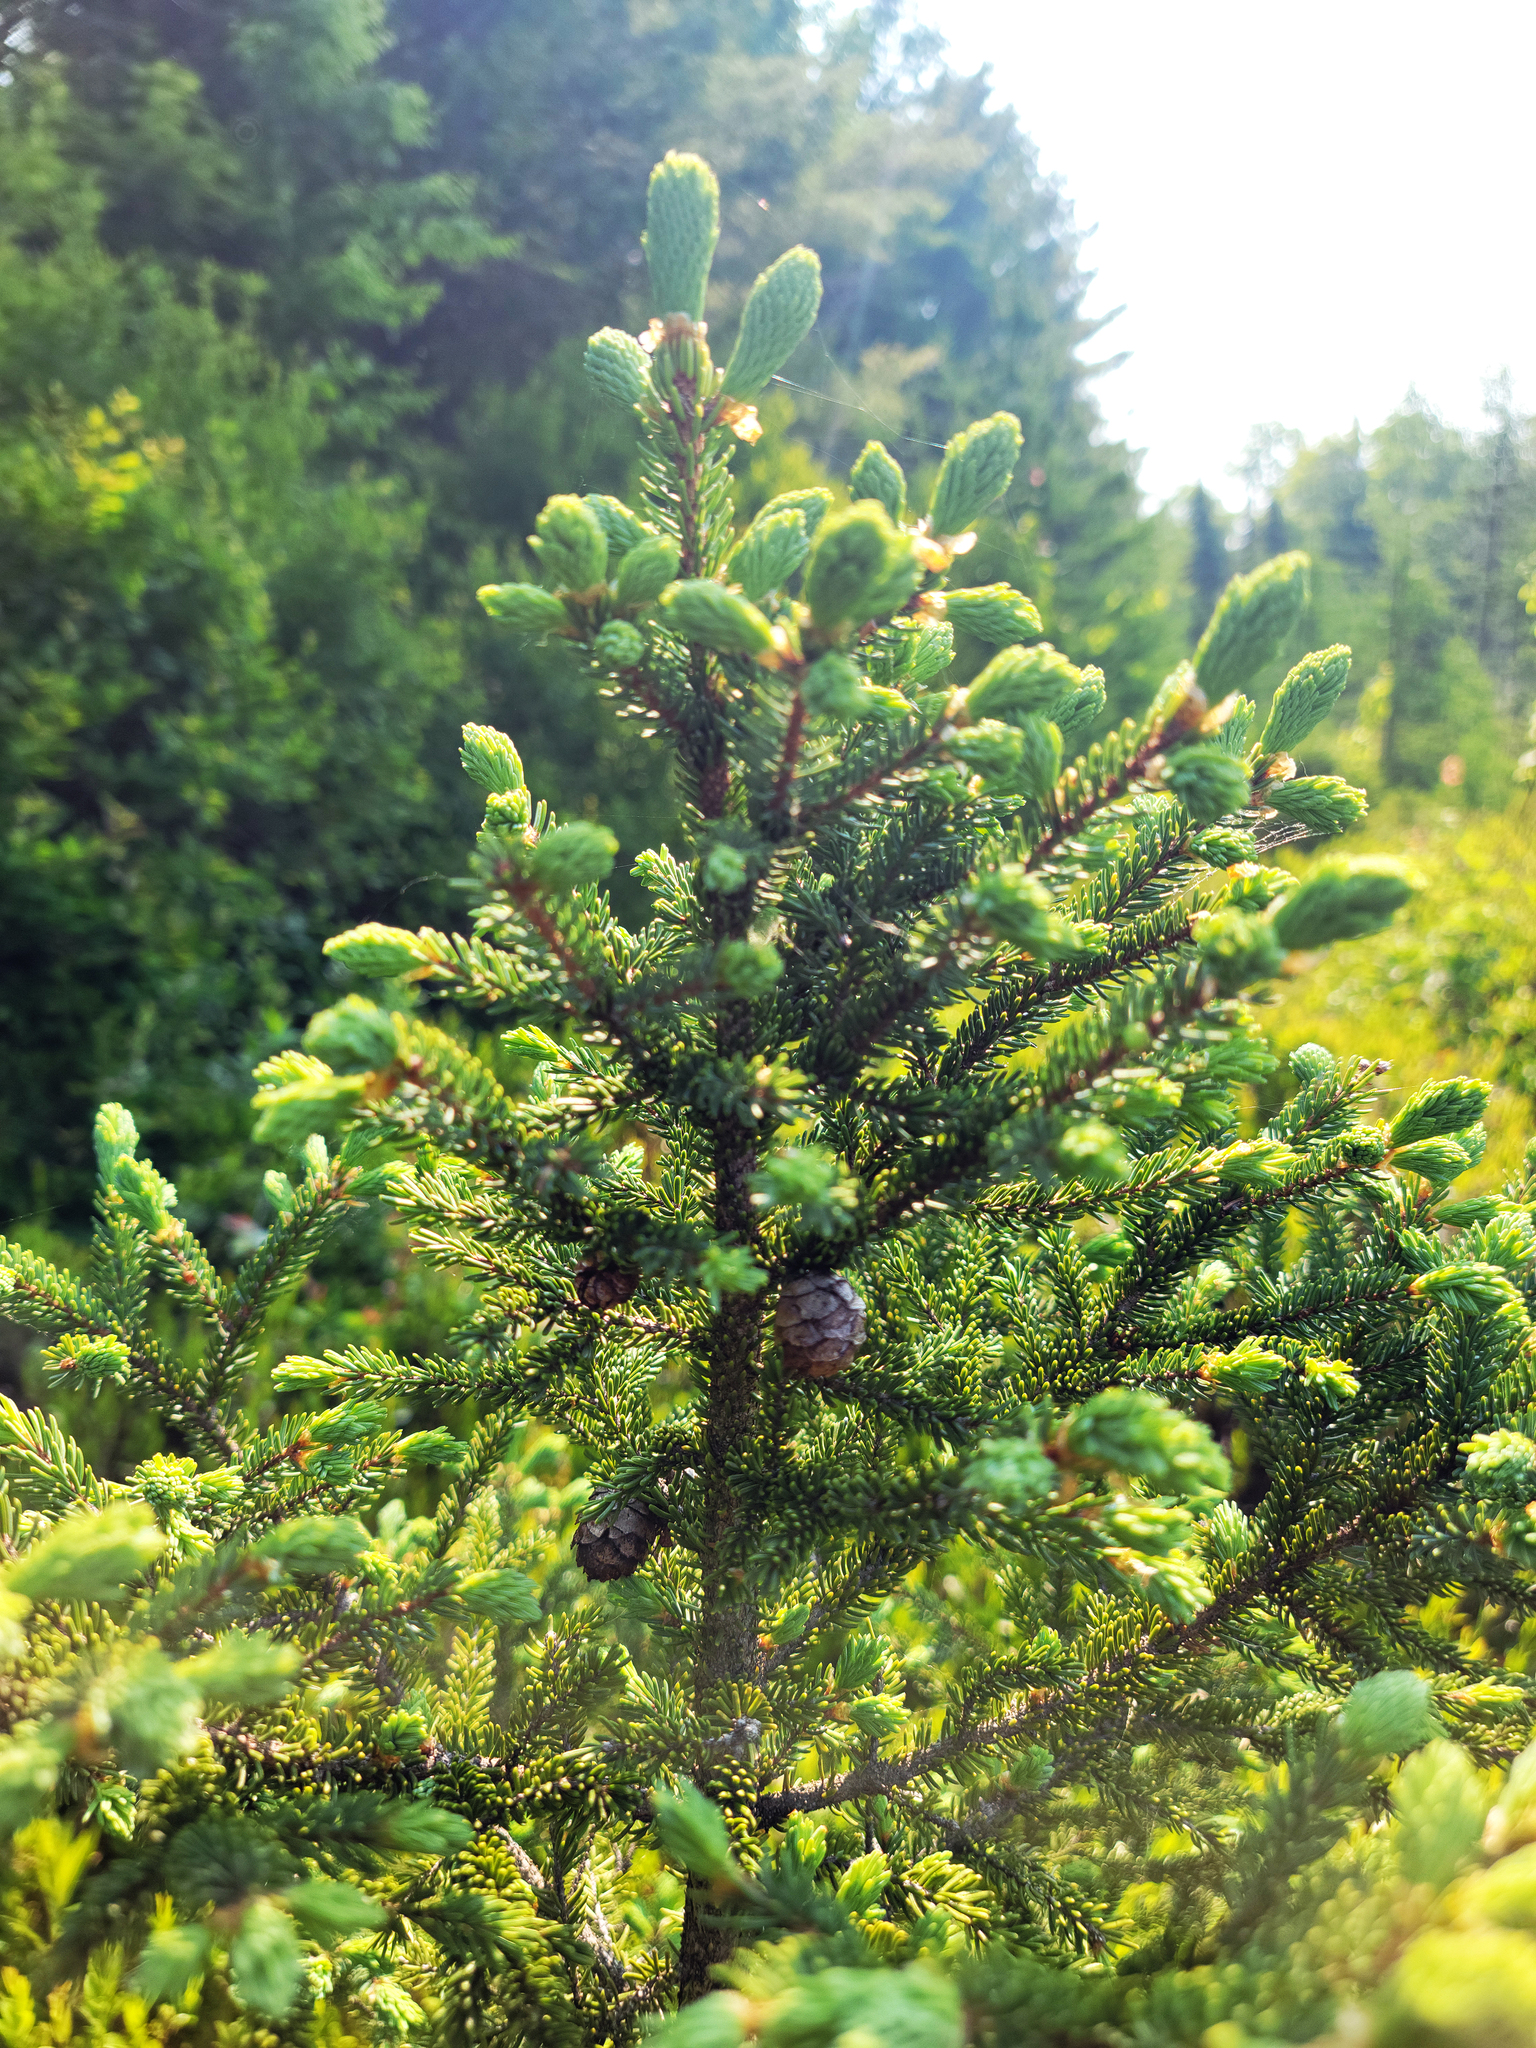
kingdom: Plantae
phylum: Tracheophyta
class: Pinopsida
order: Pinales
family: Pinaceae
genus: Picea
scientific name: Picea mariana
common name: Black spruce
